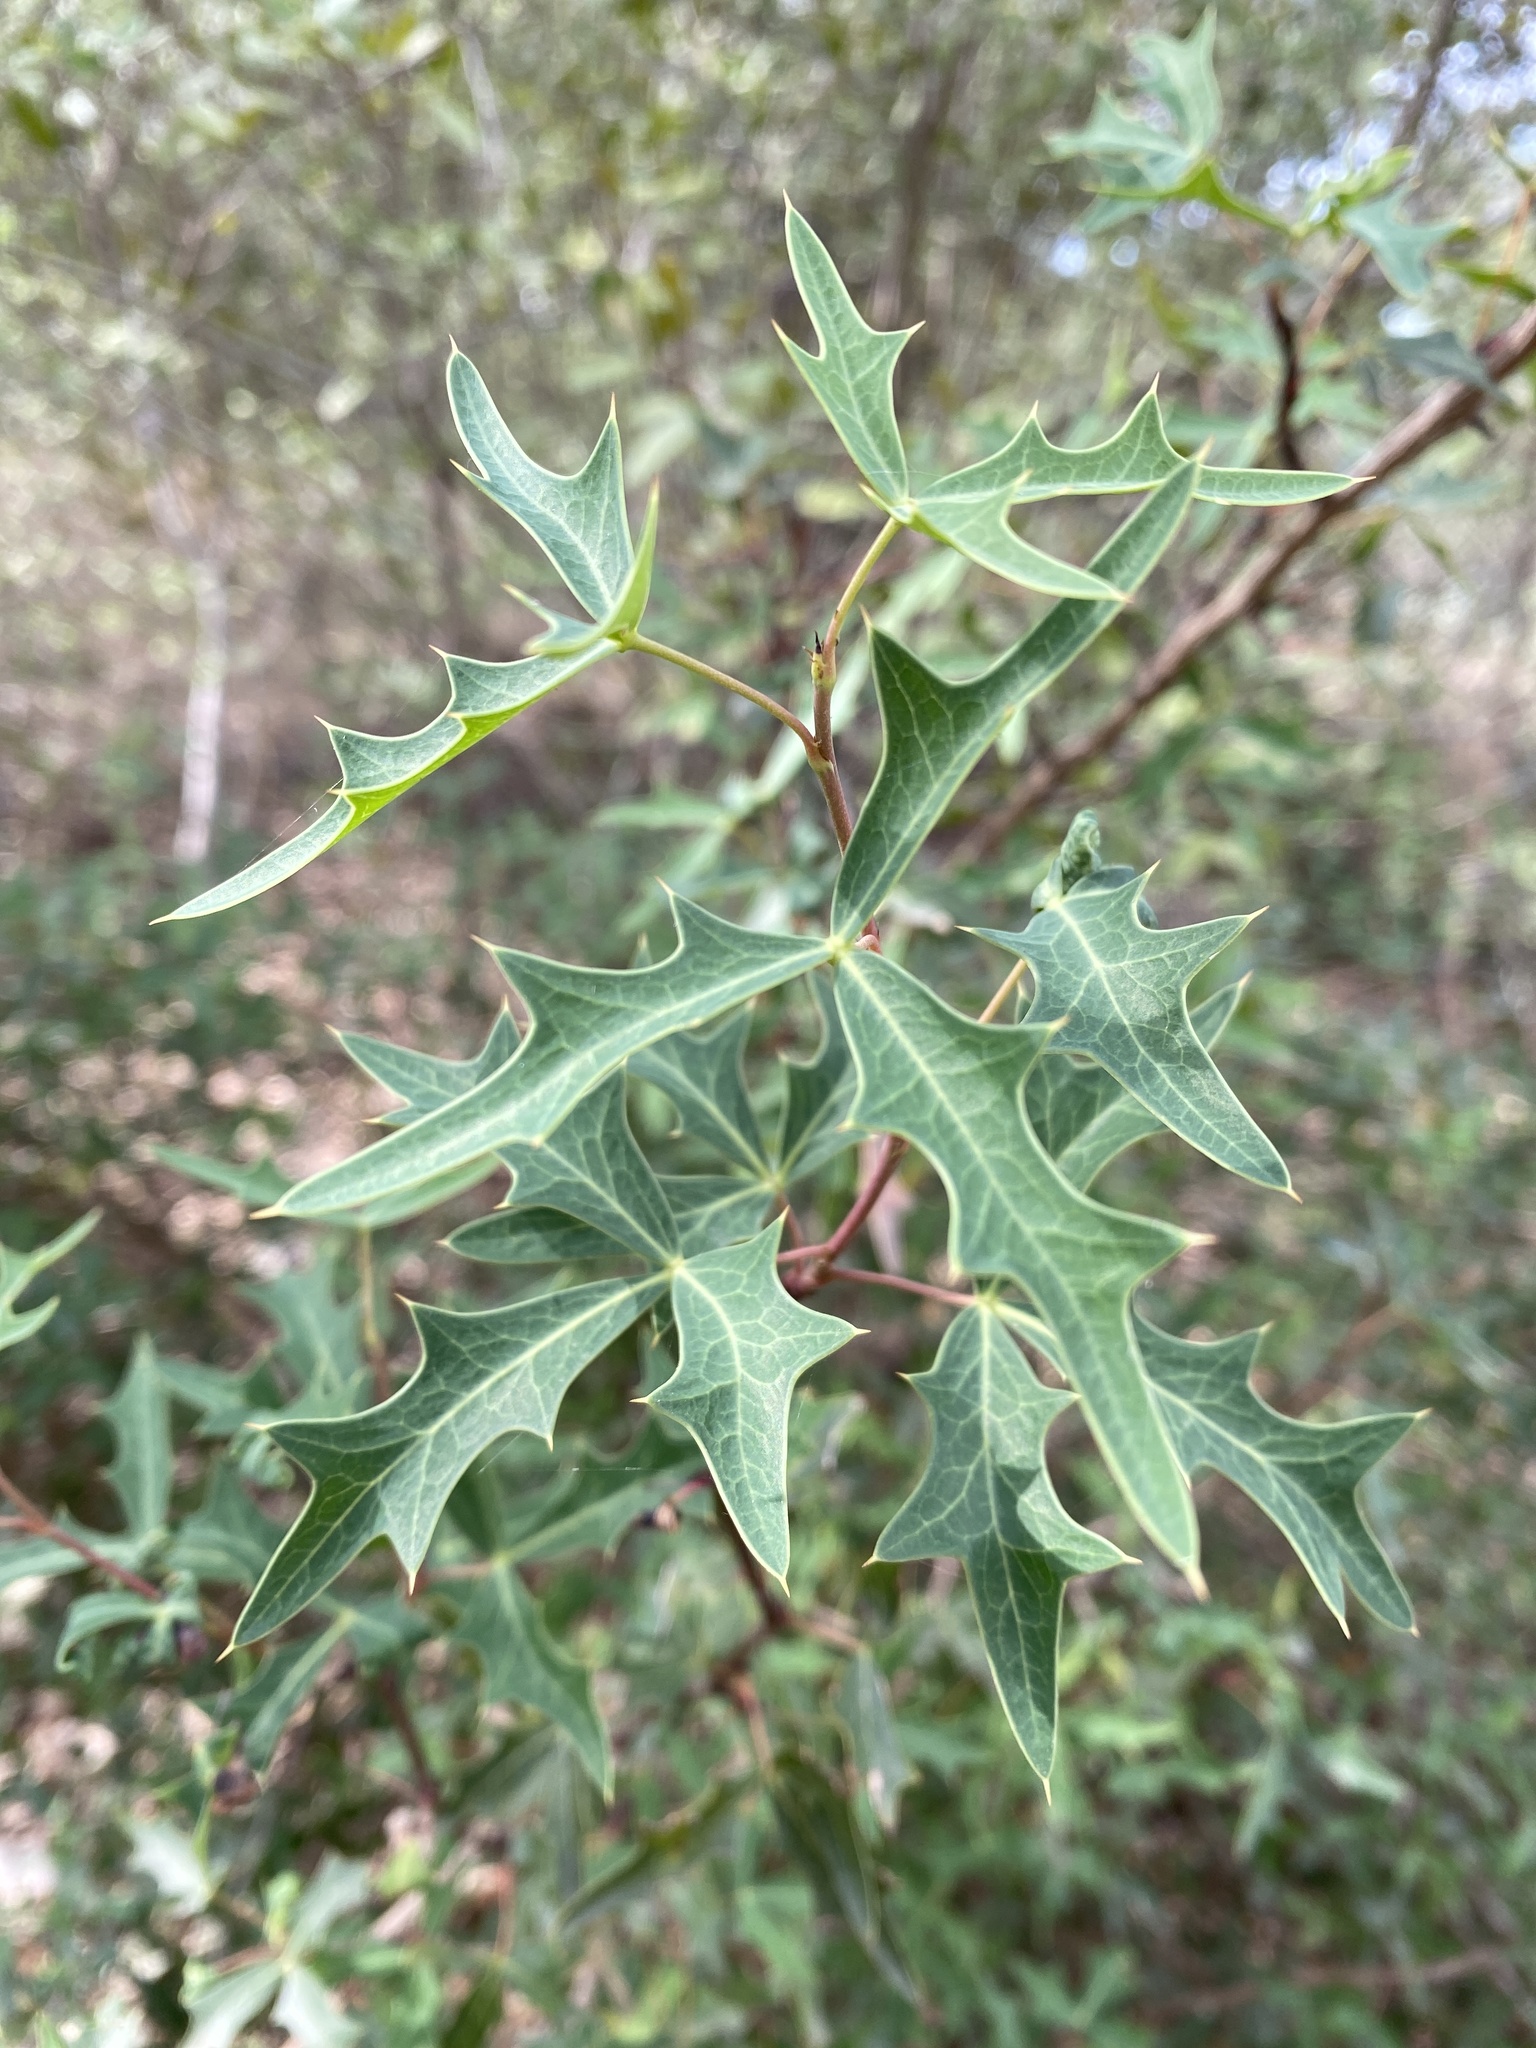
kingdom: Plantae
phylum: Tracheophyta
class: Magnoliopsida
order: Ranunculales
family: Berberidaceae
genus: Alloberberis
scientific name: Alloberberis trifoliolata
